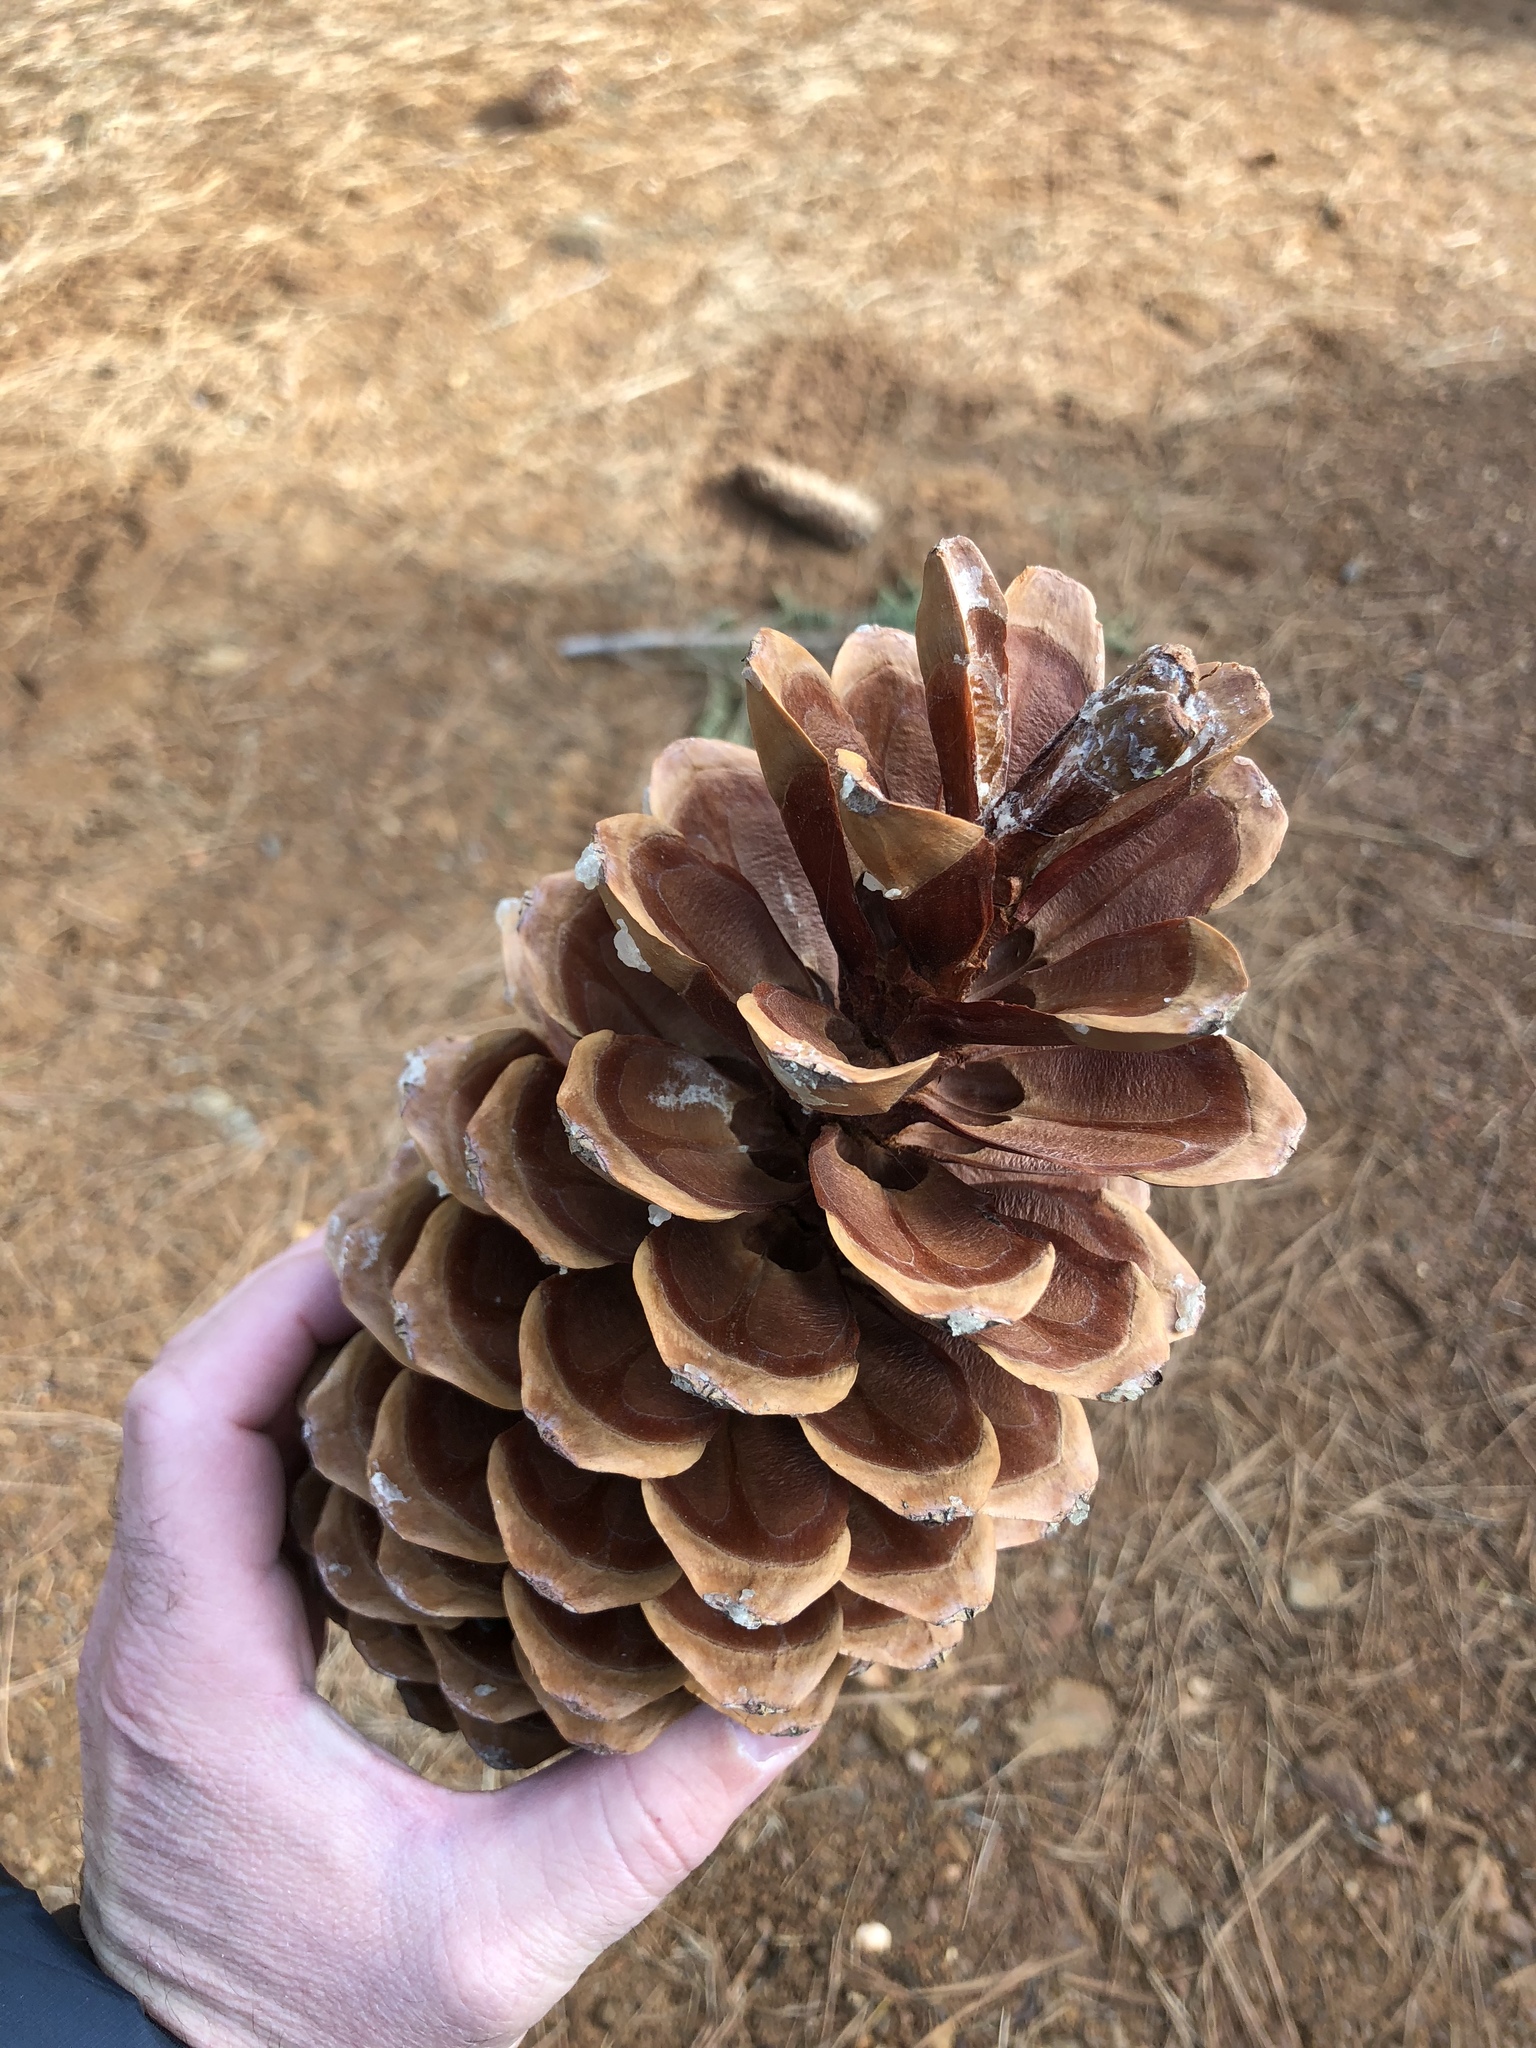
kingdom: Plantae
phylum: Tracheophyta
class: Pinopsida
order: Pinales
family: Pinaceae
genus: Pinus
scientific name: Pinus lambertiana
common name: Sugar pine
